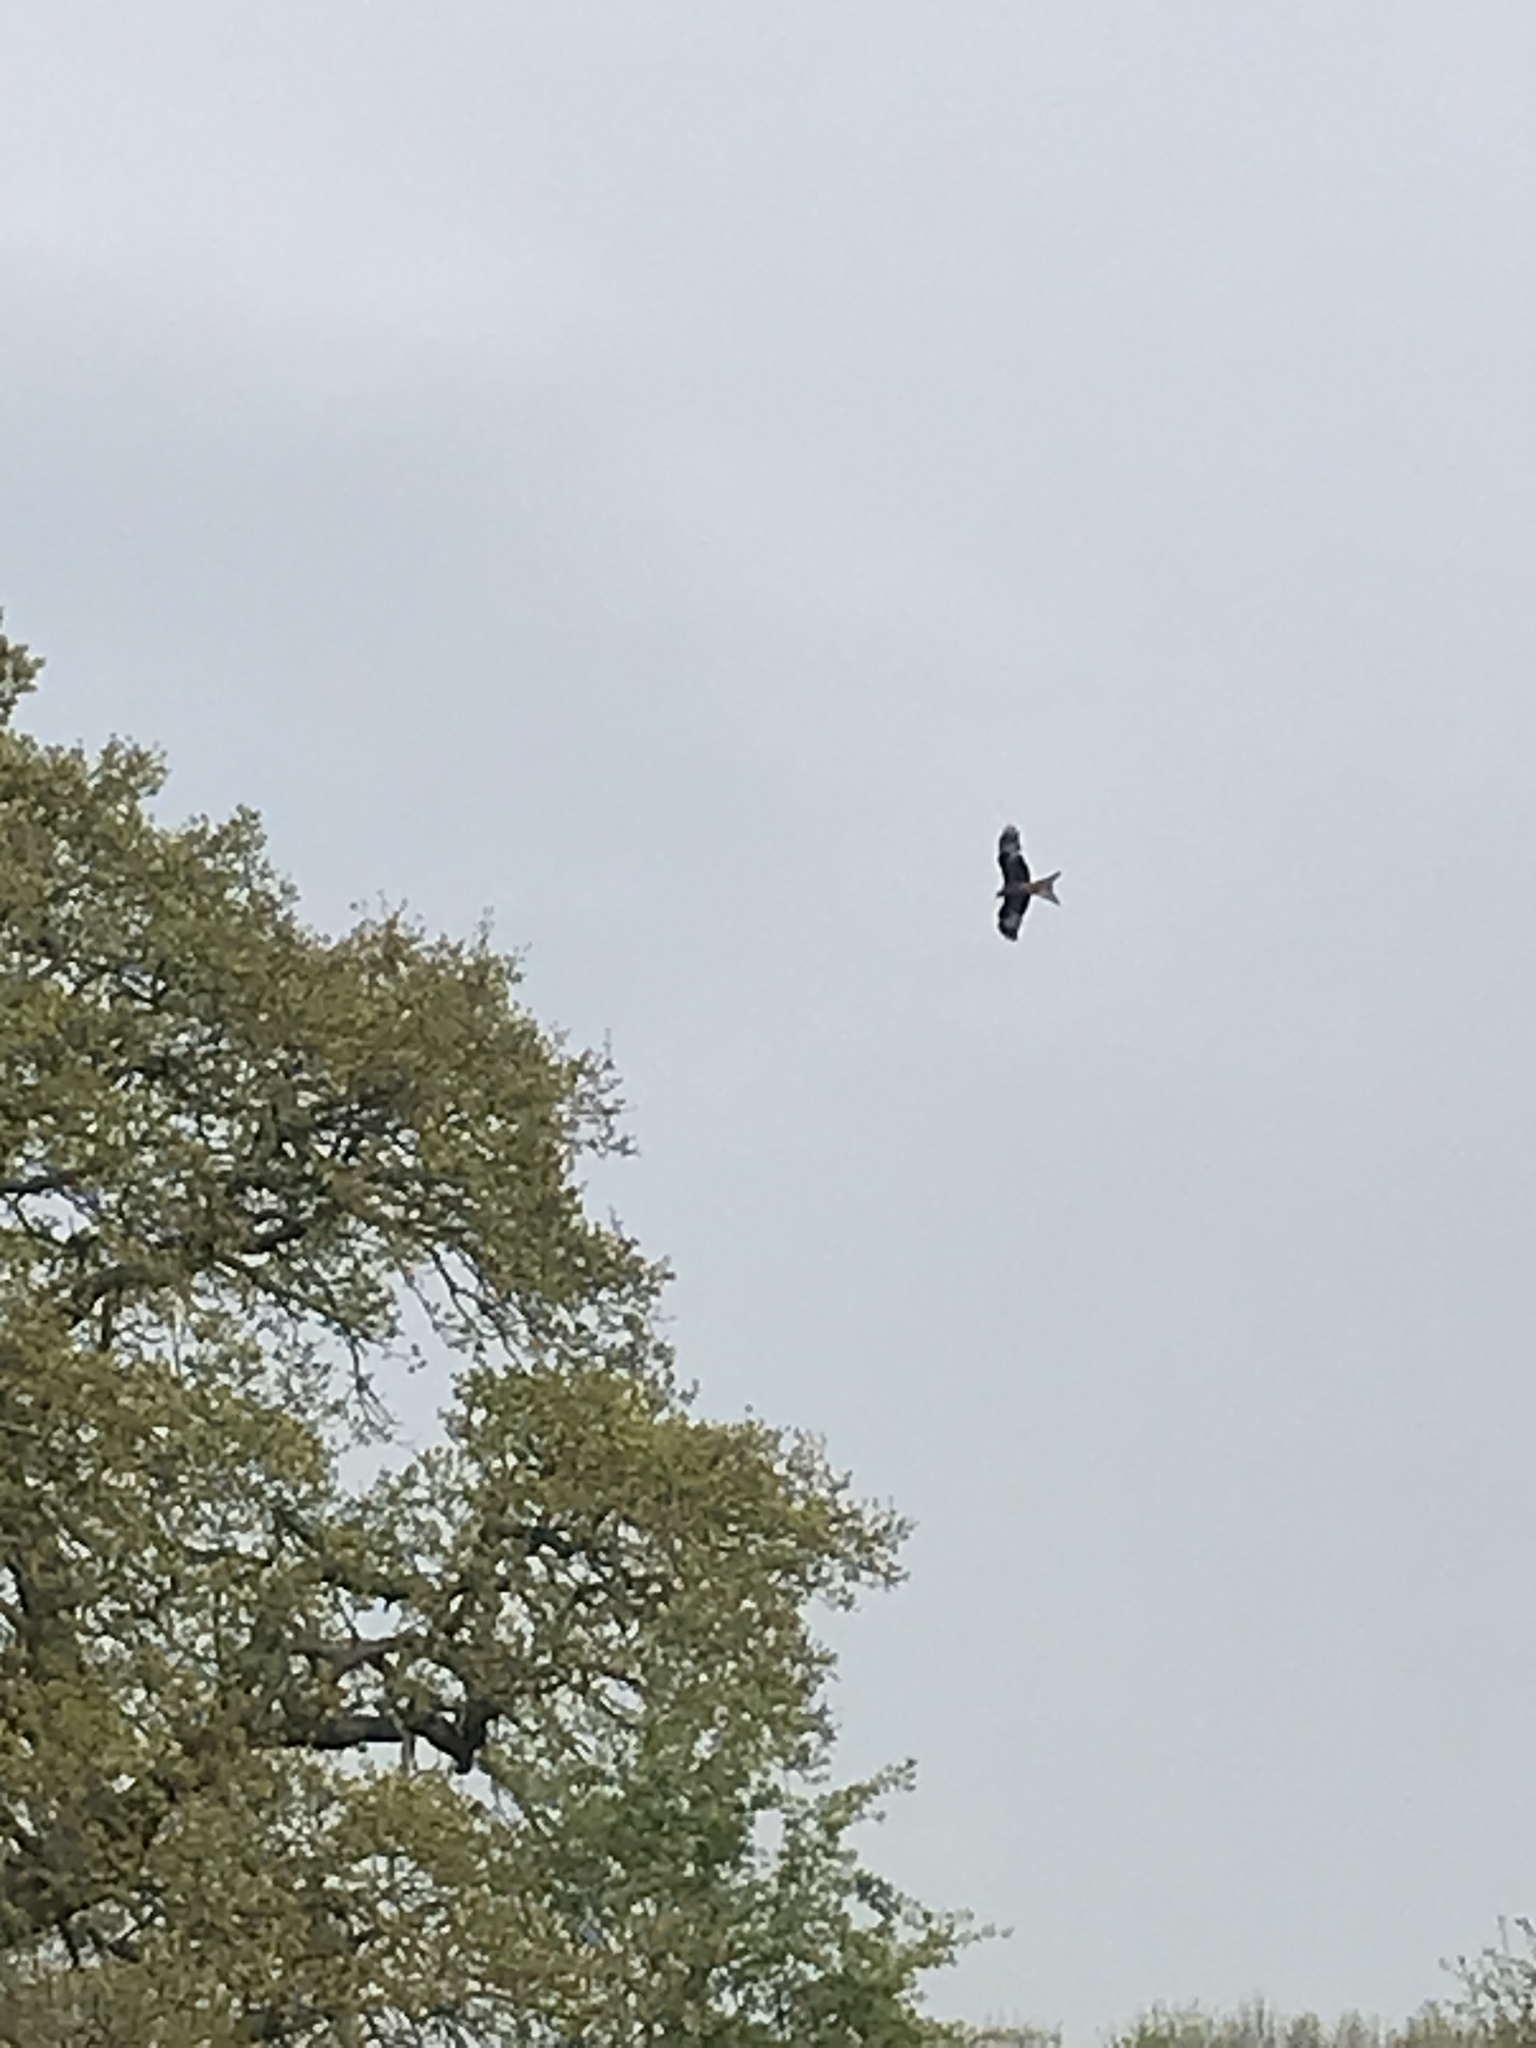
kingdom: Animalia
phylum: Chordata
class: Aves
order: Accipitriformes
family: Accipitridae
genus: Milvus
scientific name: Milvus milvus
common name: Red kite
